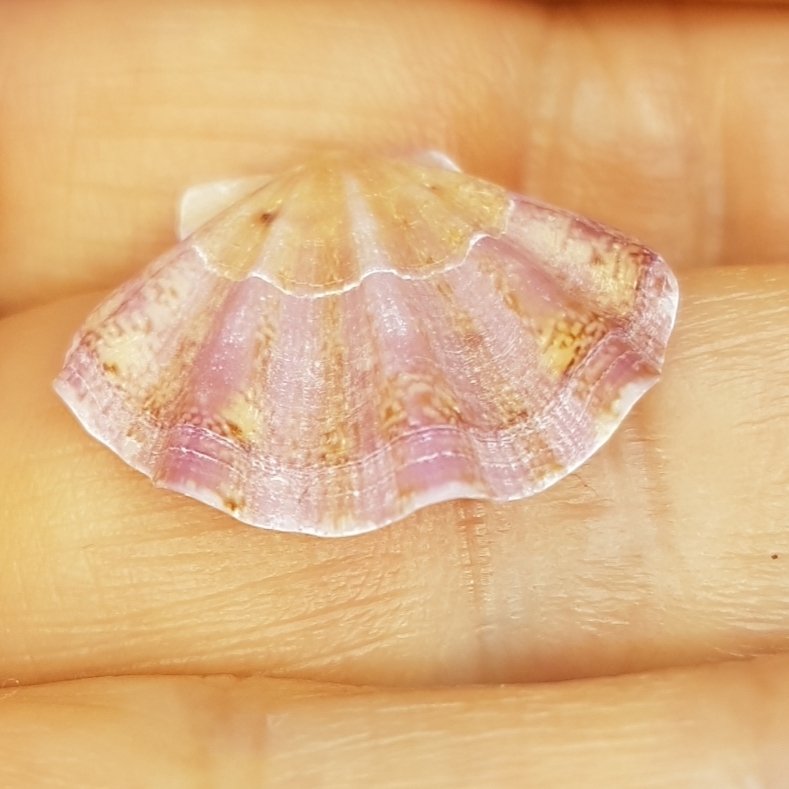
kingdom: Animalia
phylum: Mollusca
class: Bivalvia
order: Pectinida
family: Pectinidae
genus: Flexopecten
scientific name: Flexopecten flexuosus
